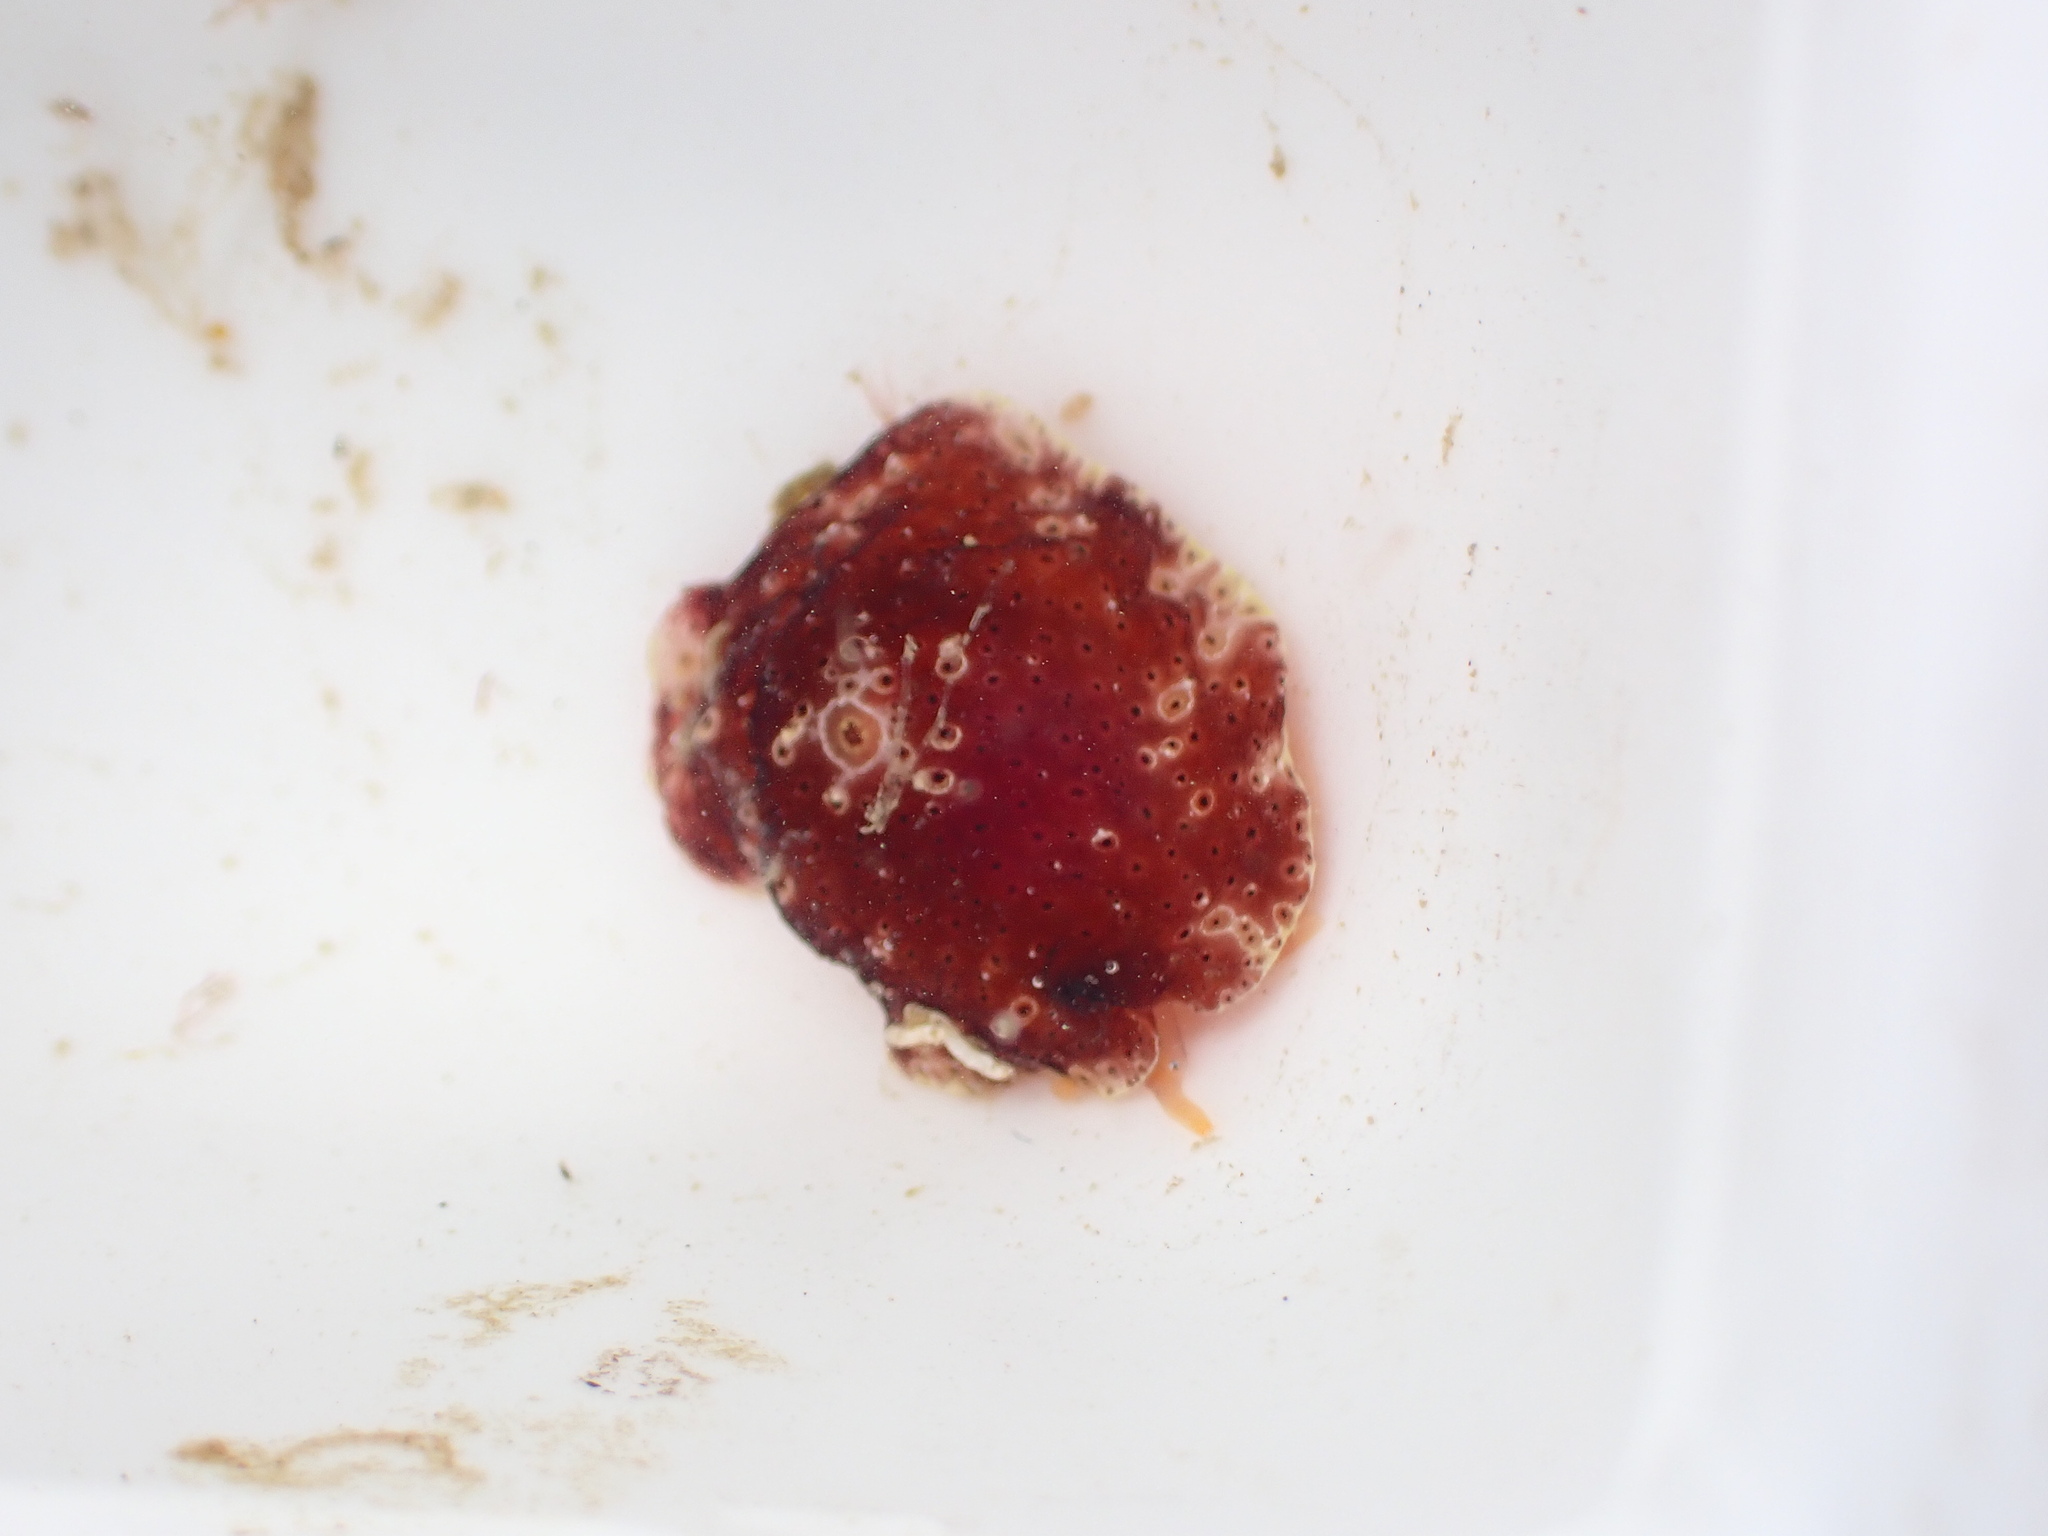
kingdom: Animalia
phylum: Mollusca
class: Gastropoda
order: Littorinimorpha
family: Velutinidae
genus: Djiboutia
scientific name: Djiboutia australis
